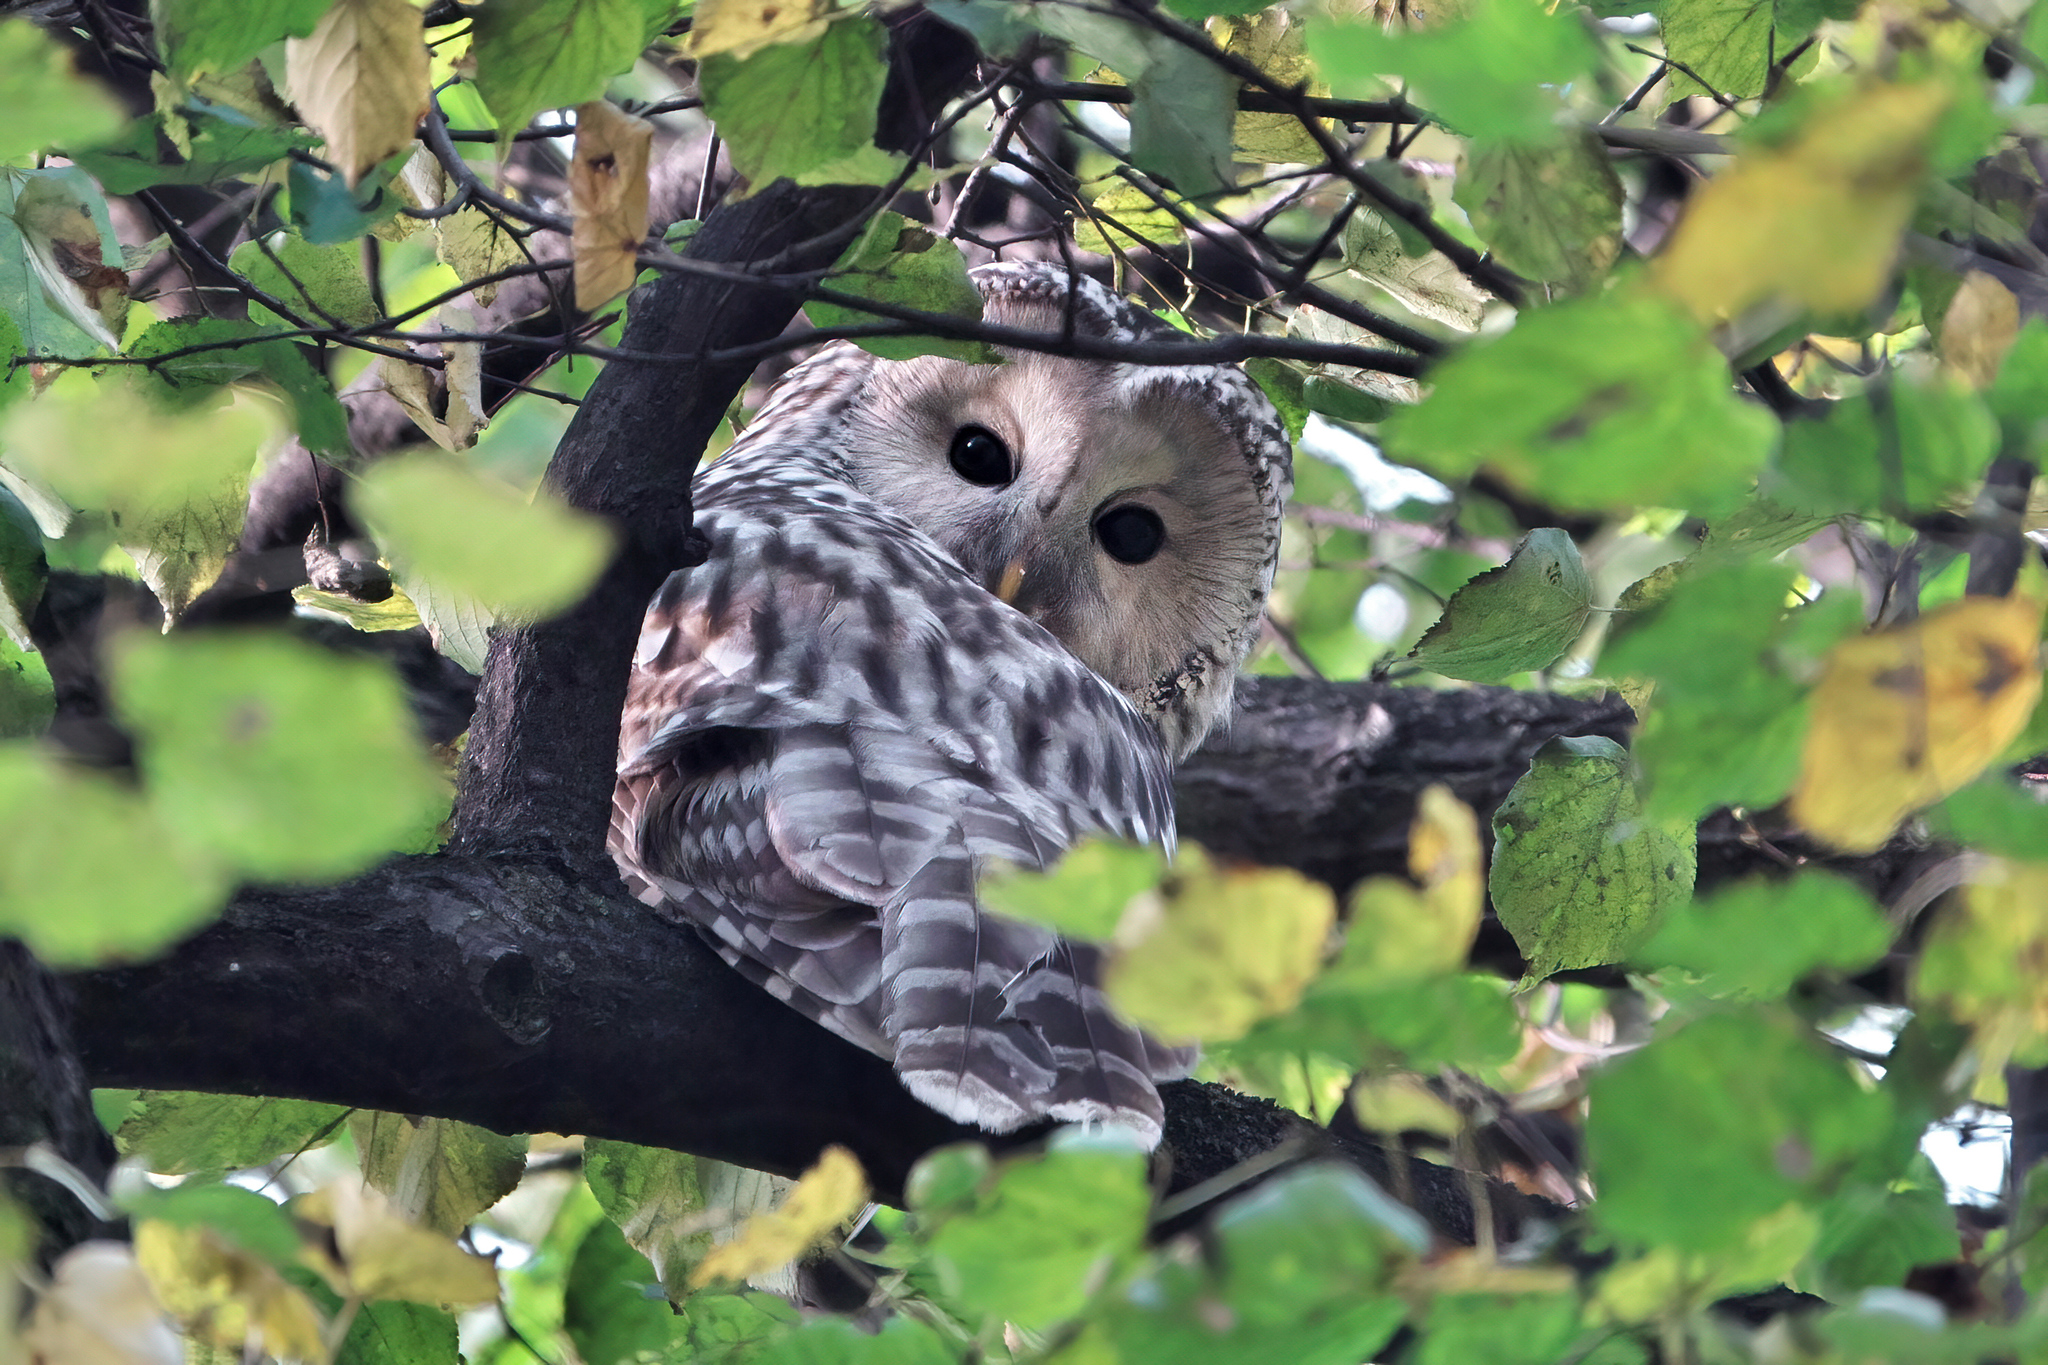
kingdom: Animalia
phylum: Chordata
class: Aves
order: Strigiformes
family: Strigidae
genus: Strix
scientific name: Strix uralensis
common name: Ural owl
